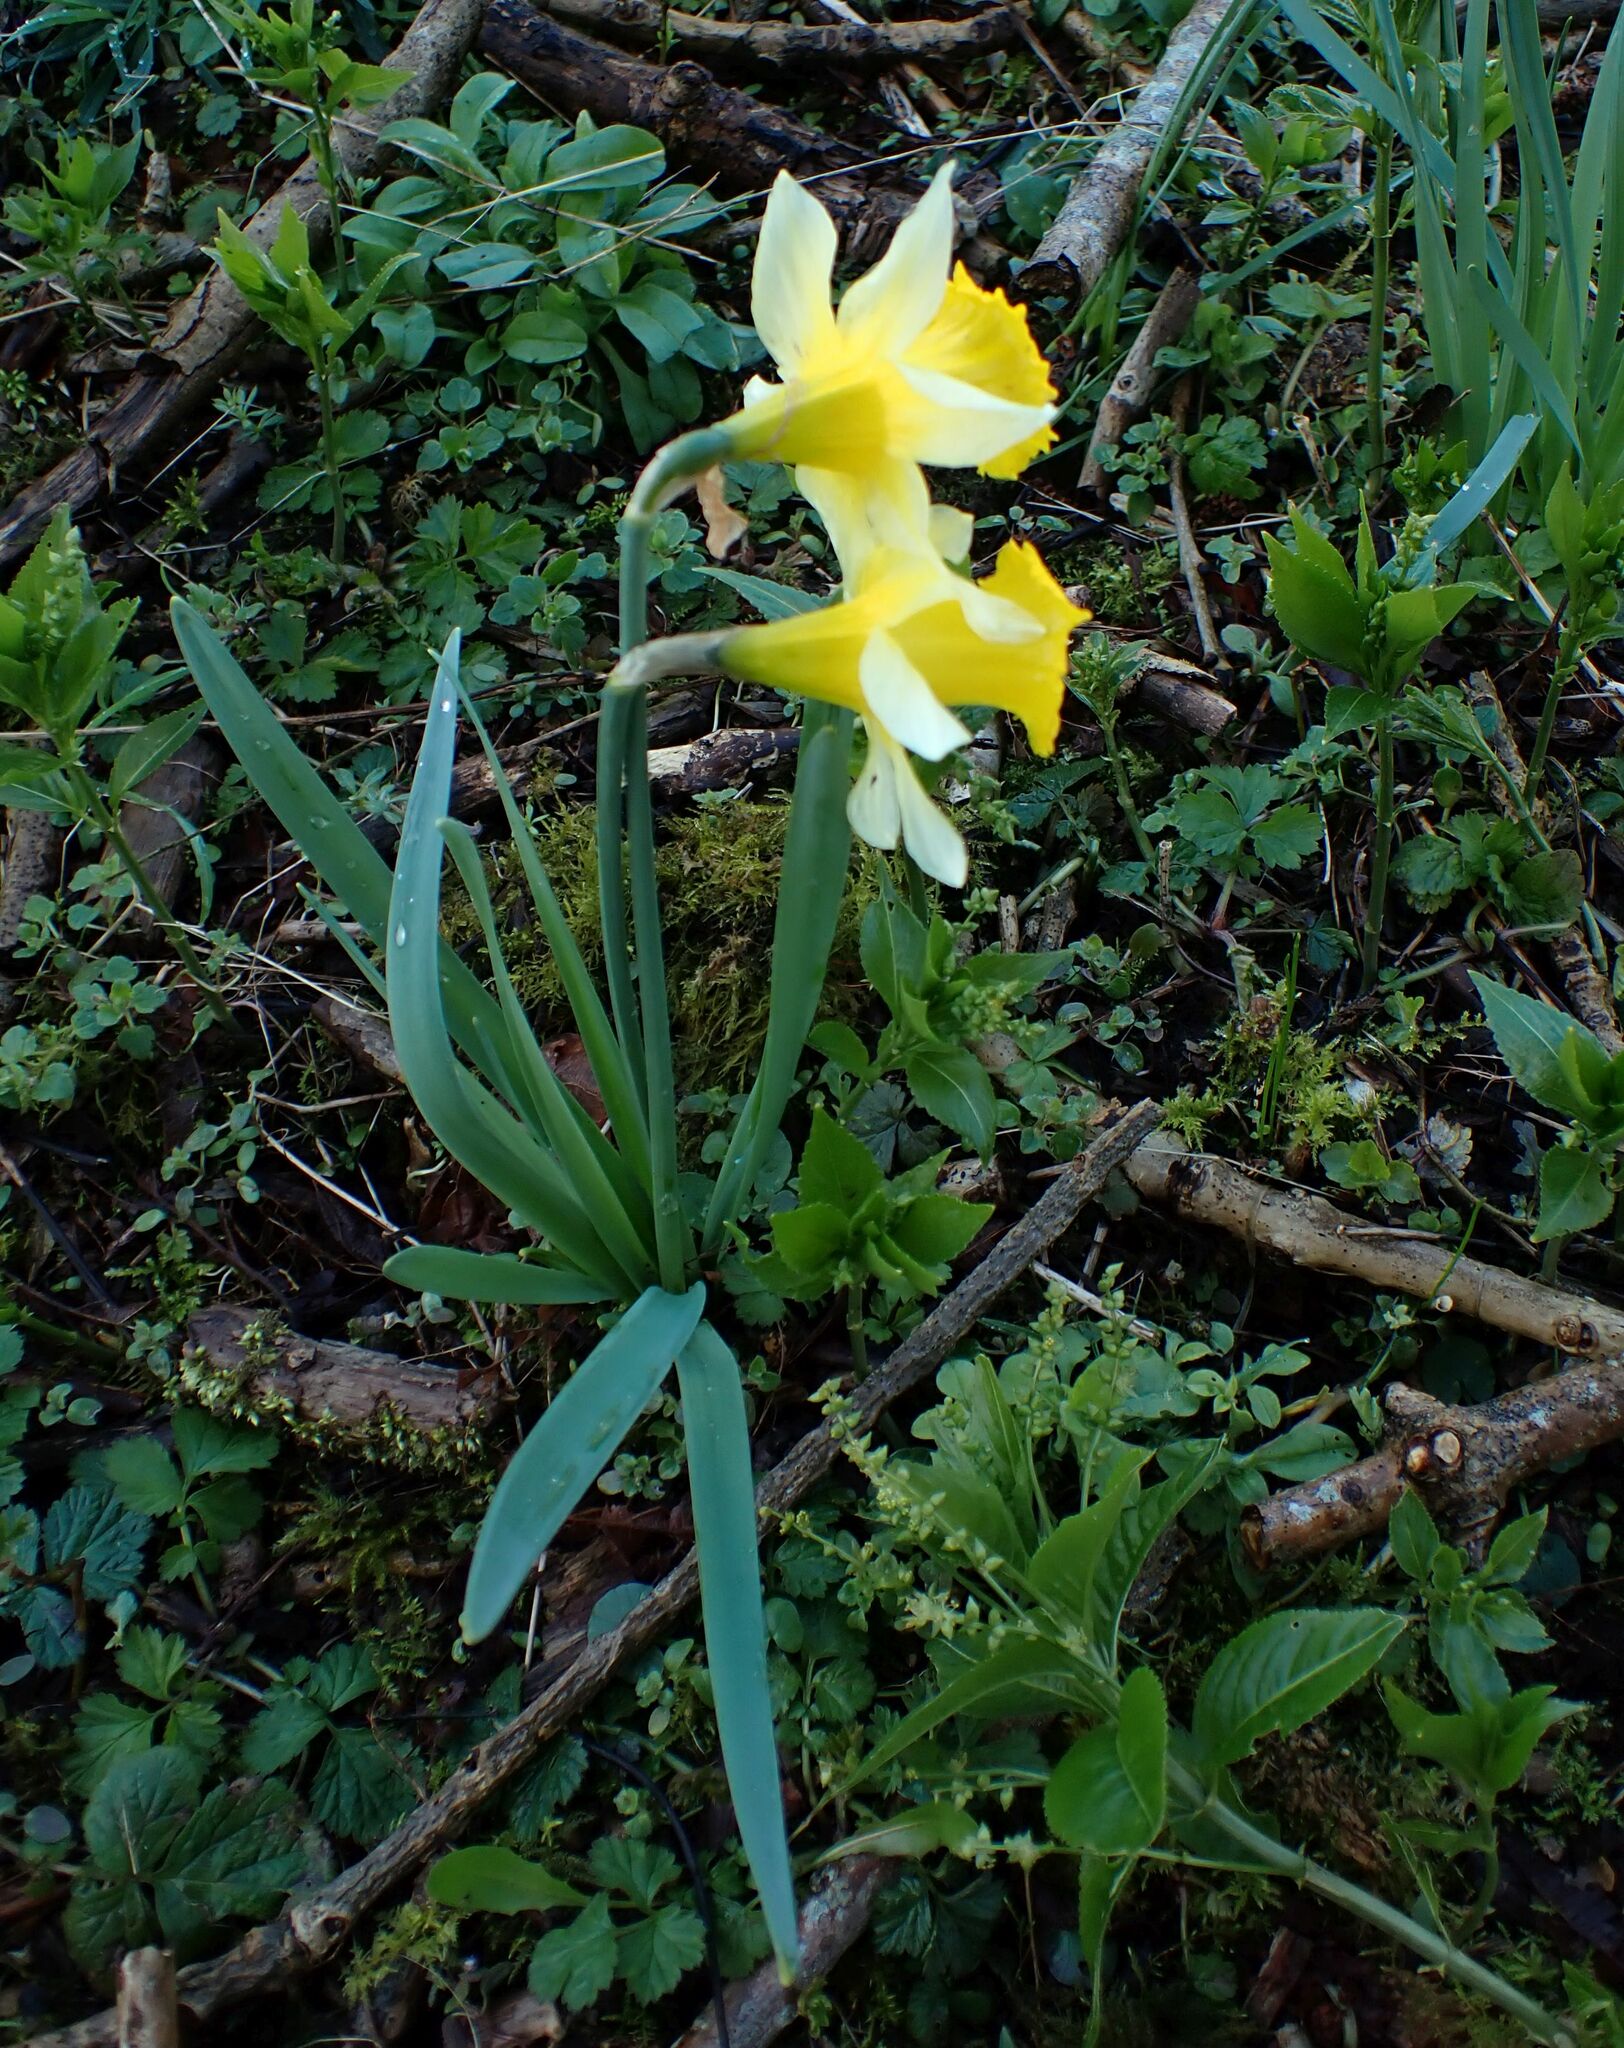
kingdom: Plantae
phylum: Tracheophyta
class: Liliopsida
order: Asparagales
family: Amaryllidaceae
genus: Narcissus
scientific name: Narcissus pseudonarcissus
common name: Daffodil
